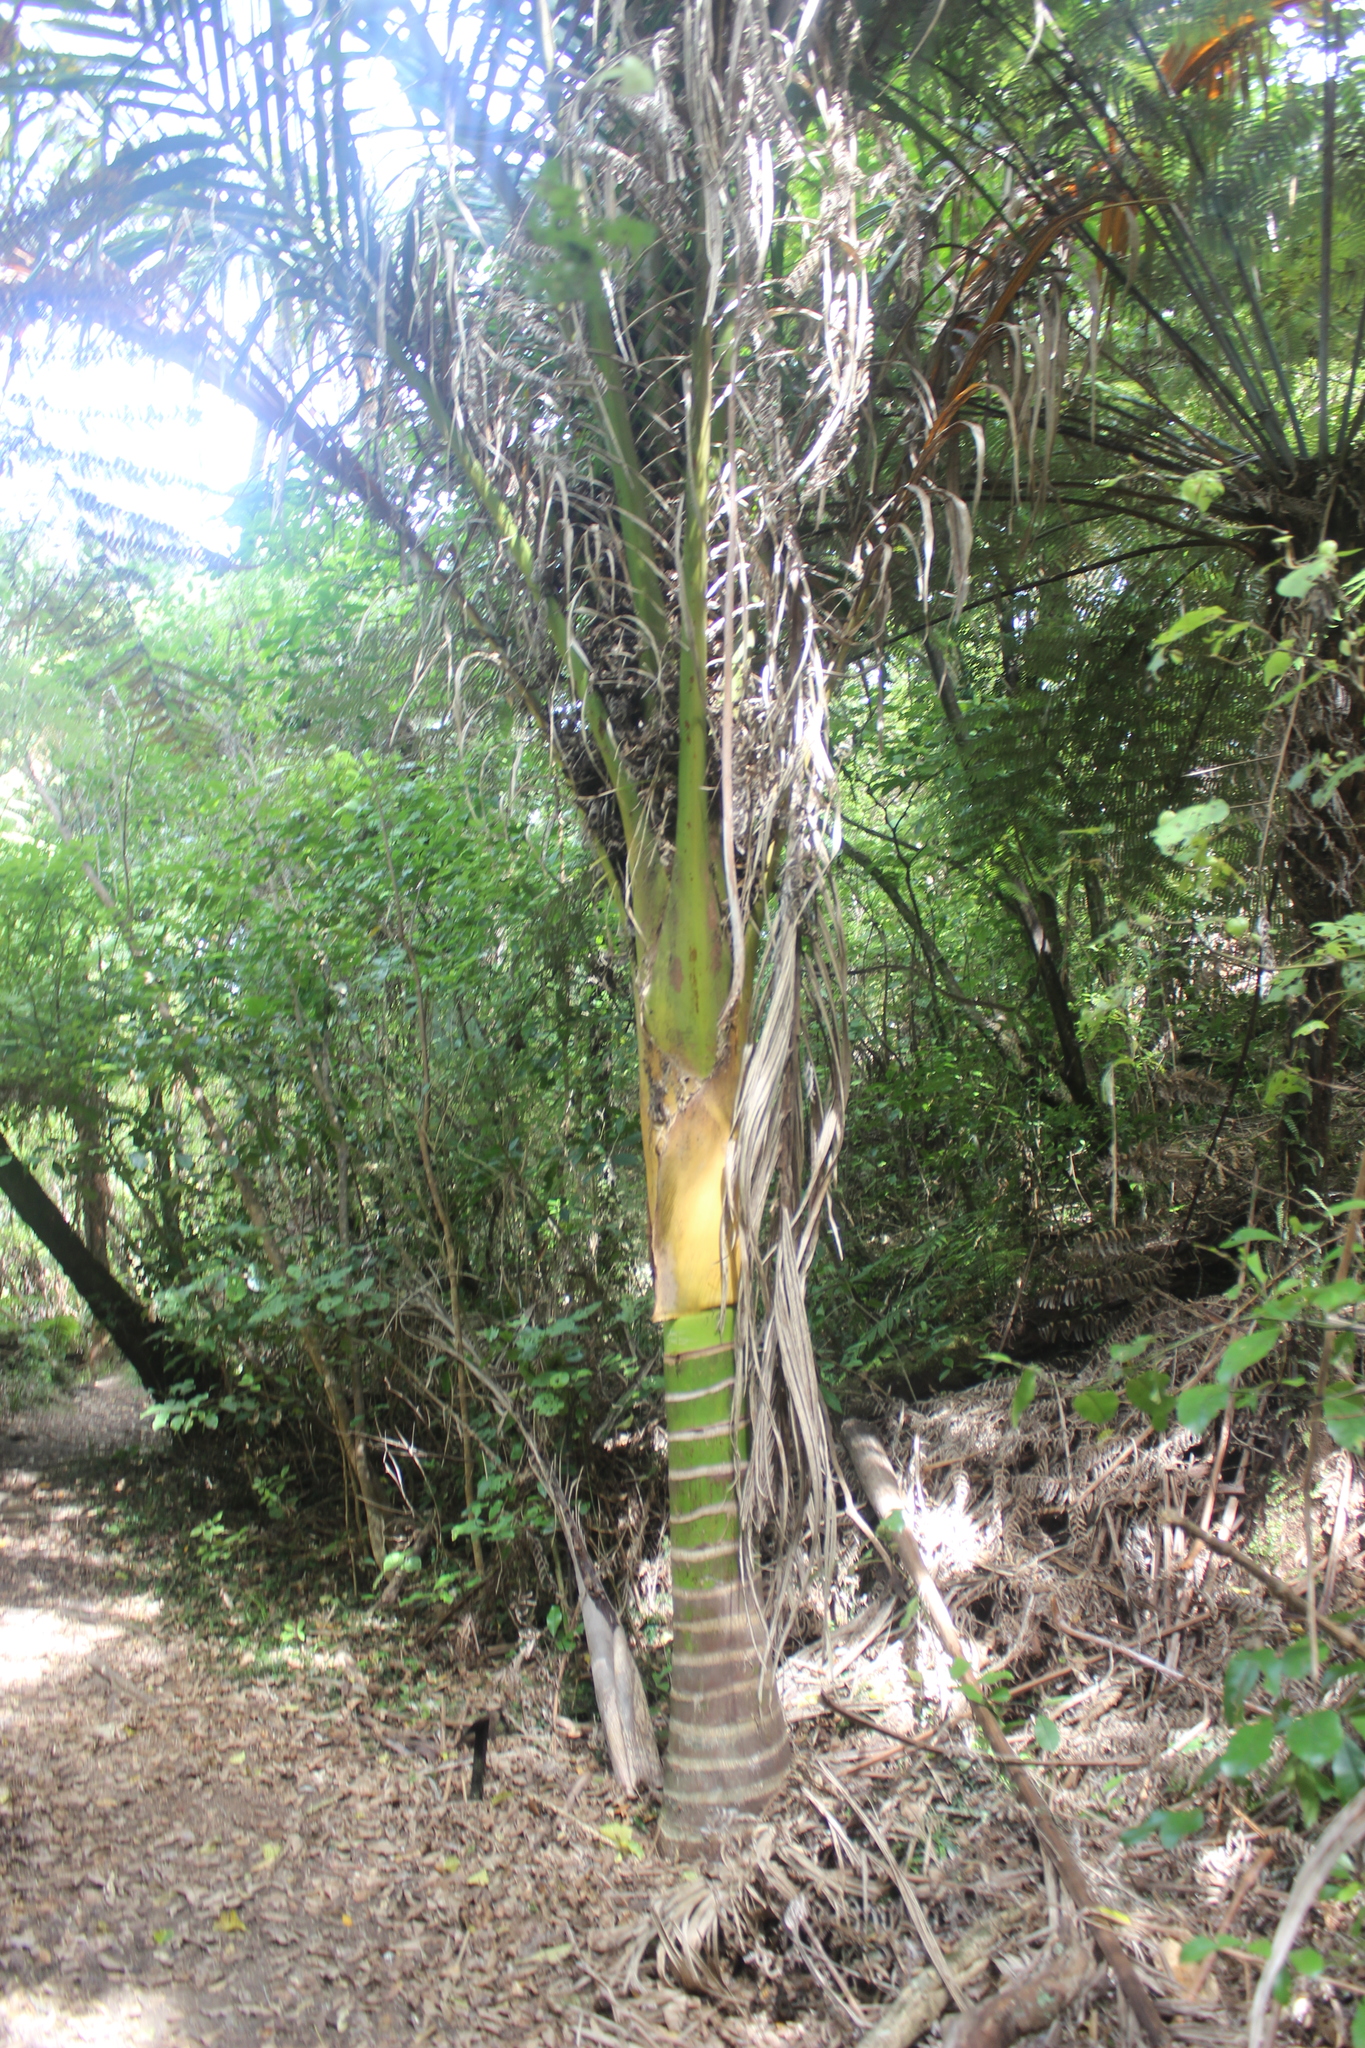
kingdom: Plantae
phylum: Tracheophyta
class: Liliopsida
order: Arecales
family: Arecaceae
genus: Rhopalostylis
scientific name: Rhopalostylis sapida
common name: Feather-duster palm
